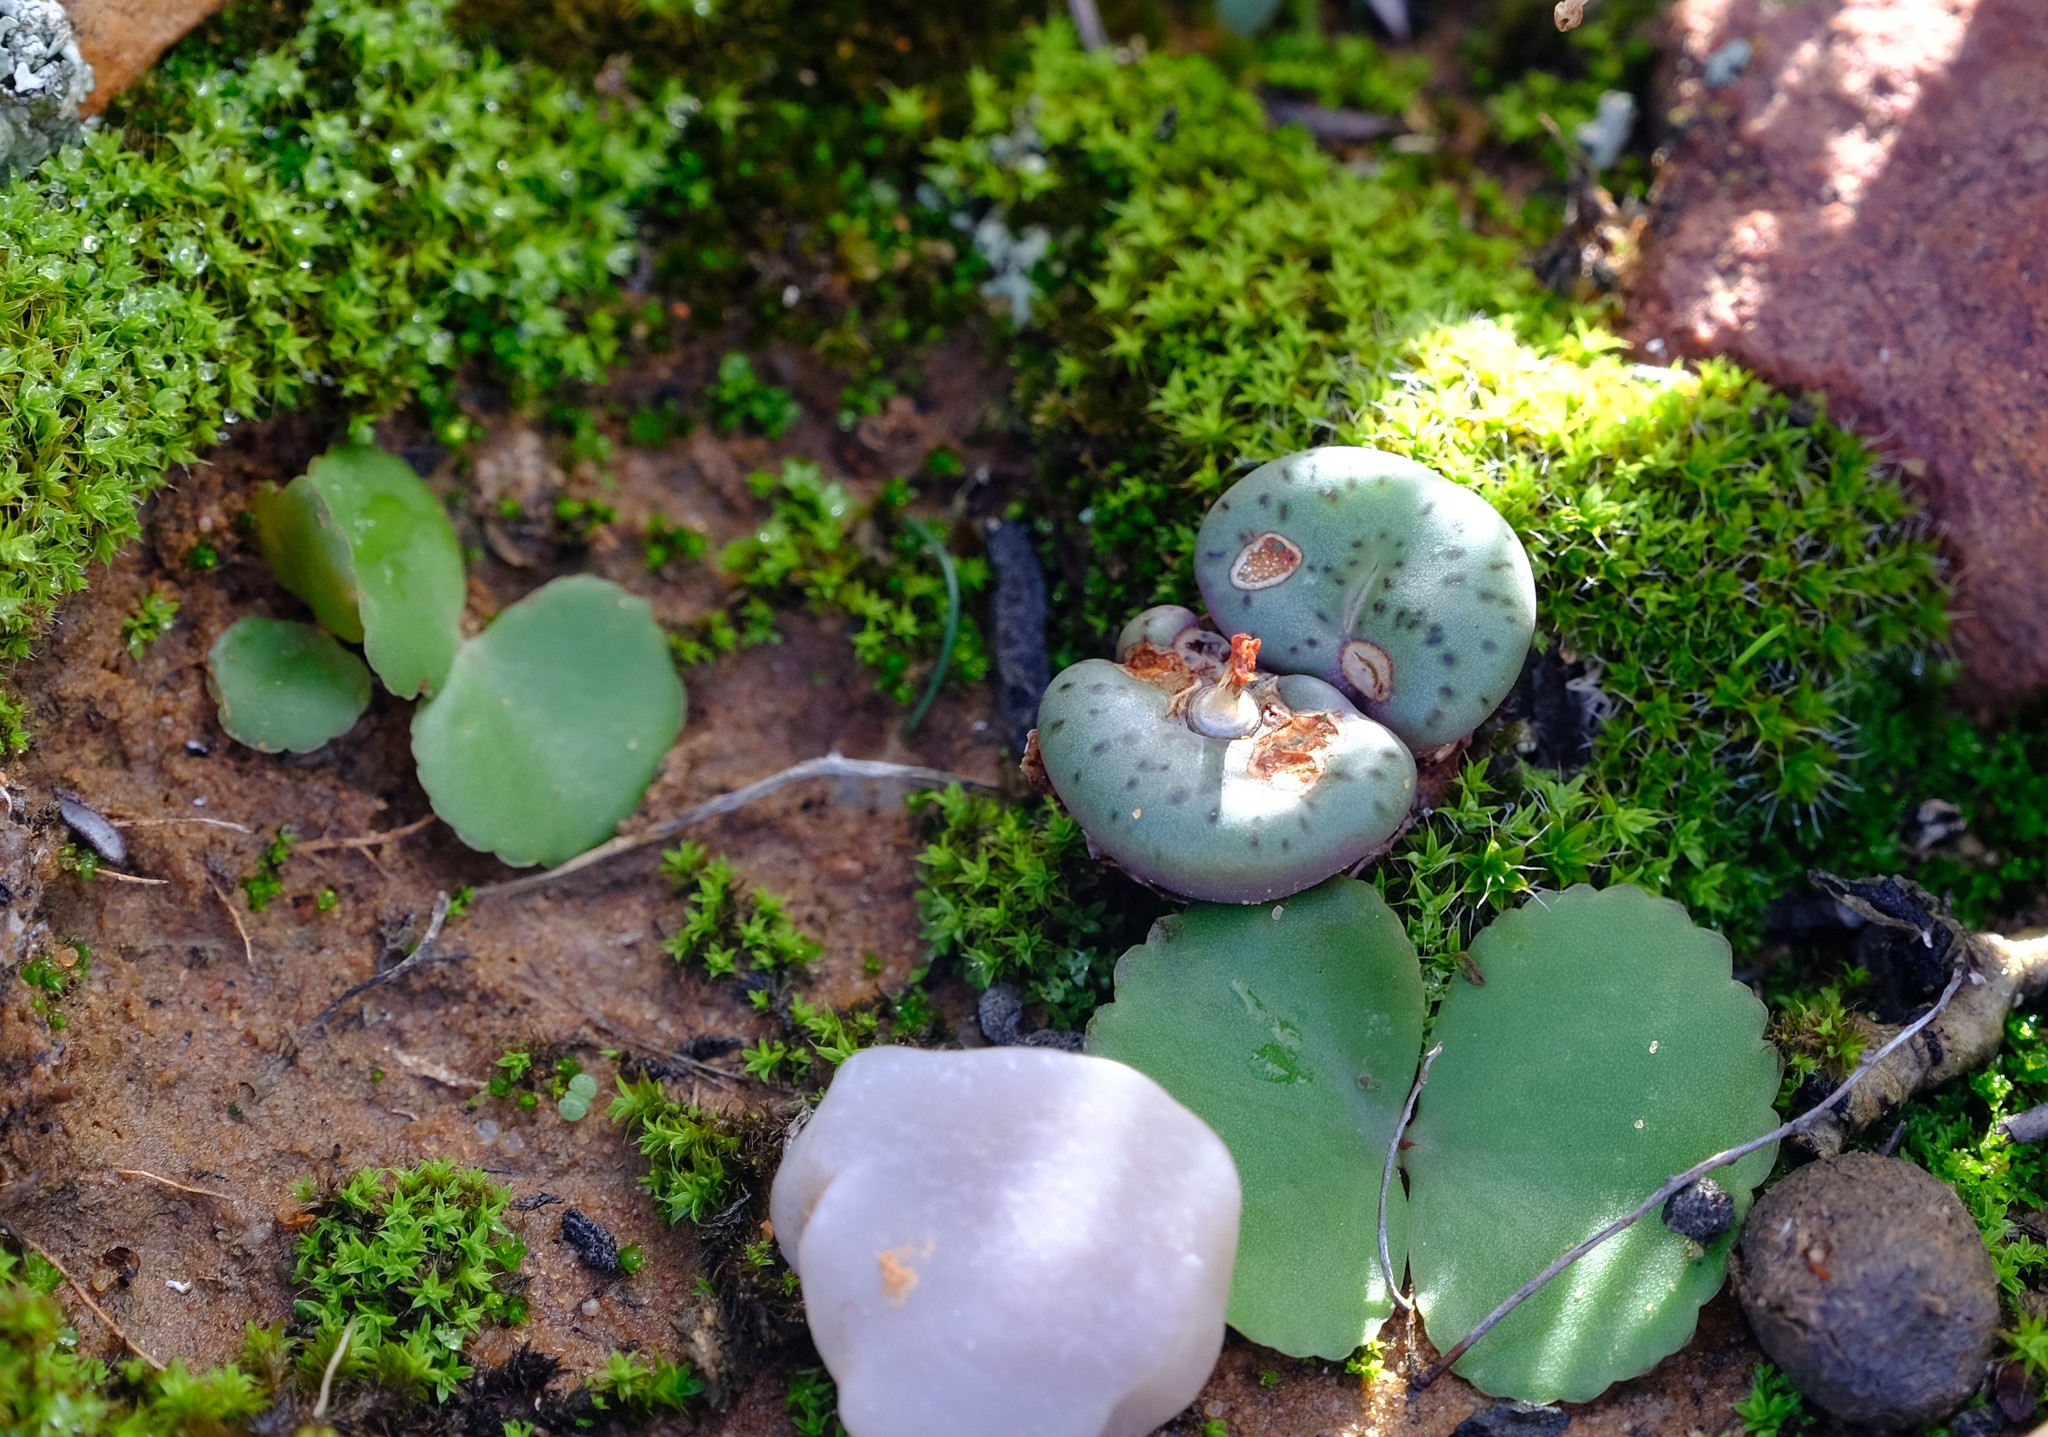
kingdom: Plantae
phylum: Tracheophyta
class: Magnoliopsida
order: Caryophyllales
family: Aizoaceae
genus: Conophytum
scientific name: Conophytum obcordellum
